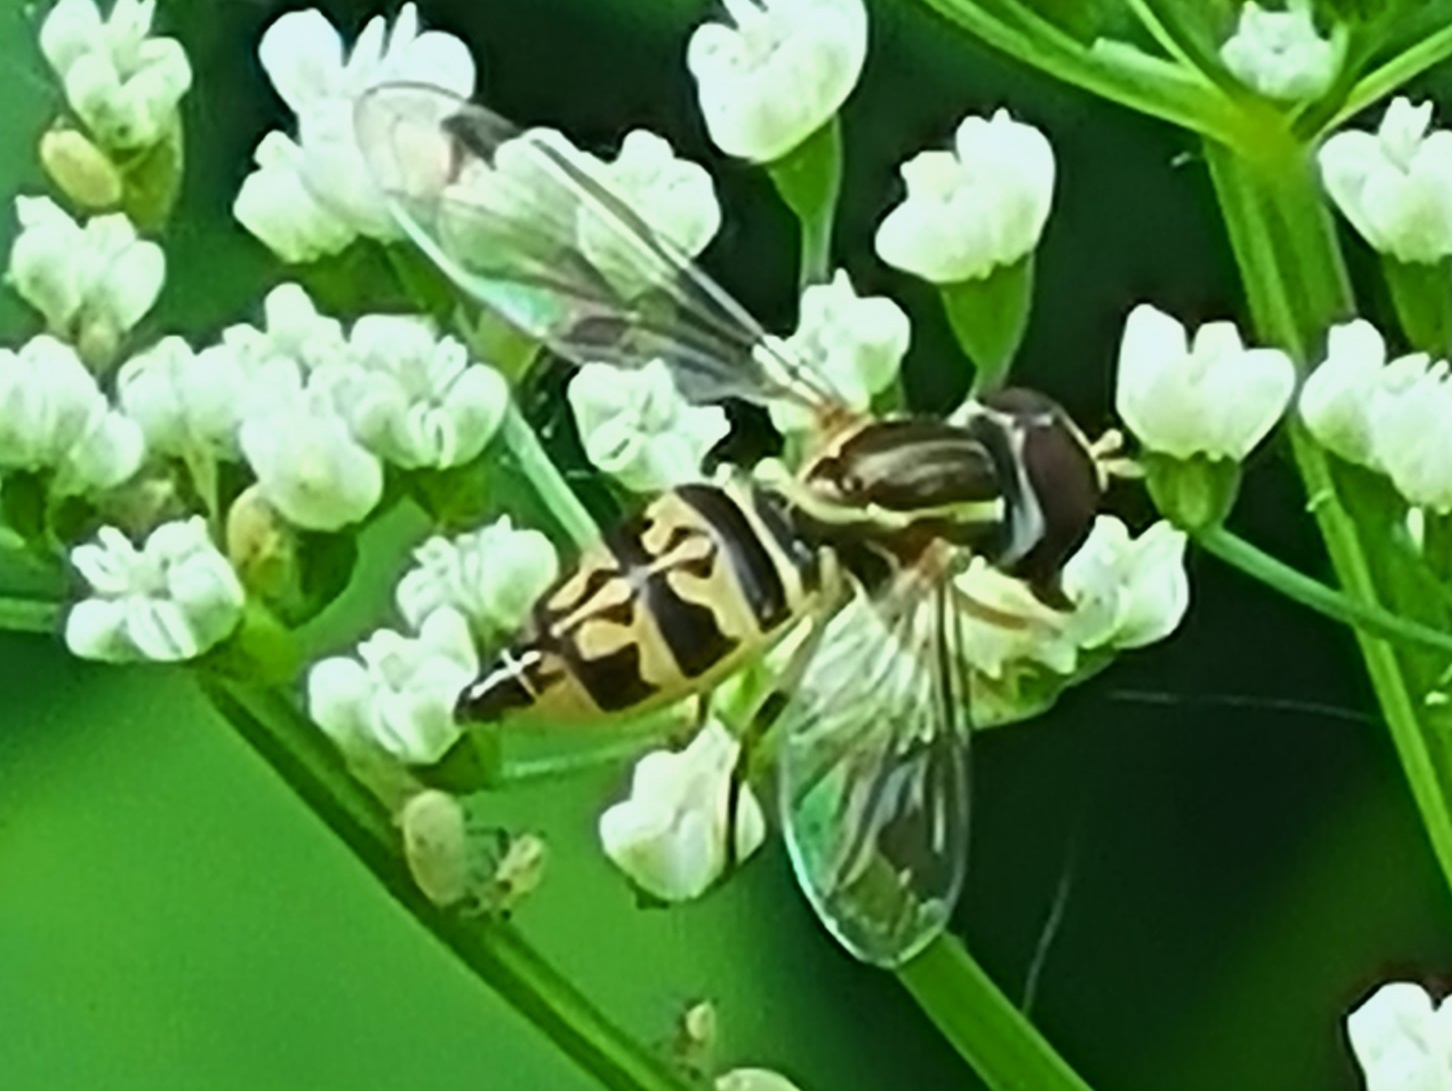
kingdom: Animalia
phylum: Arthropoda
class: Insecta
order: Diptera
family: Syrphidae
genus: Toxomerus
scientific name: Toxomerus geminatus
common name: Eastern calligrapher
